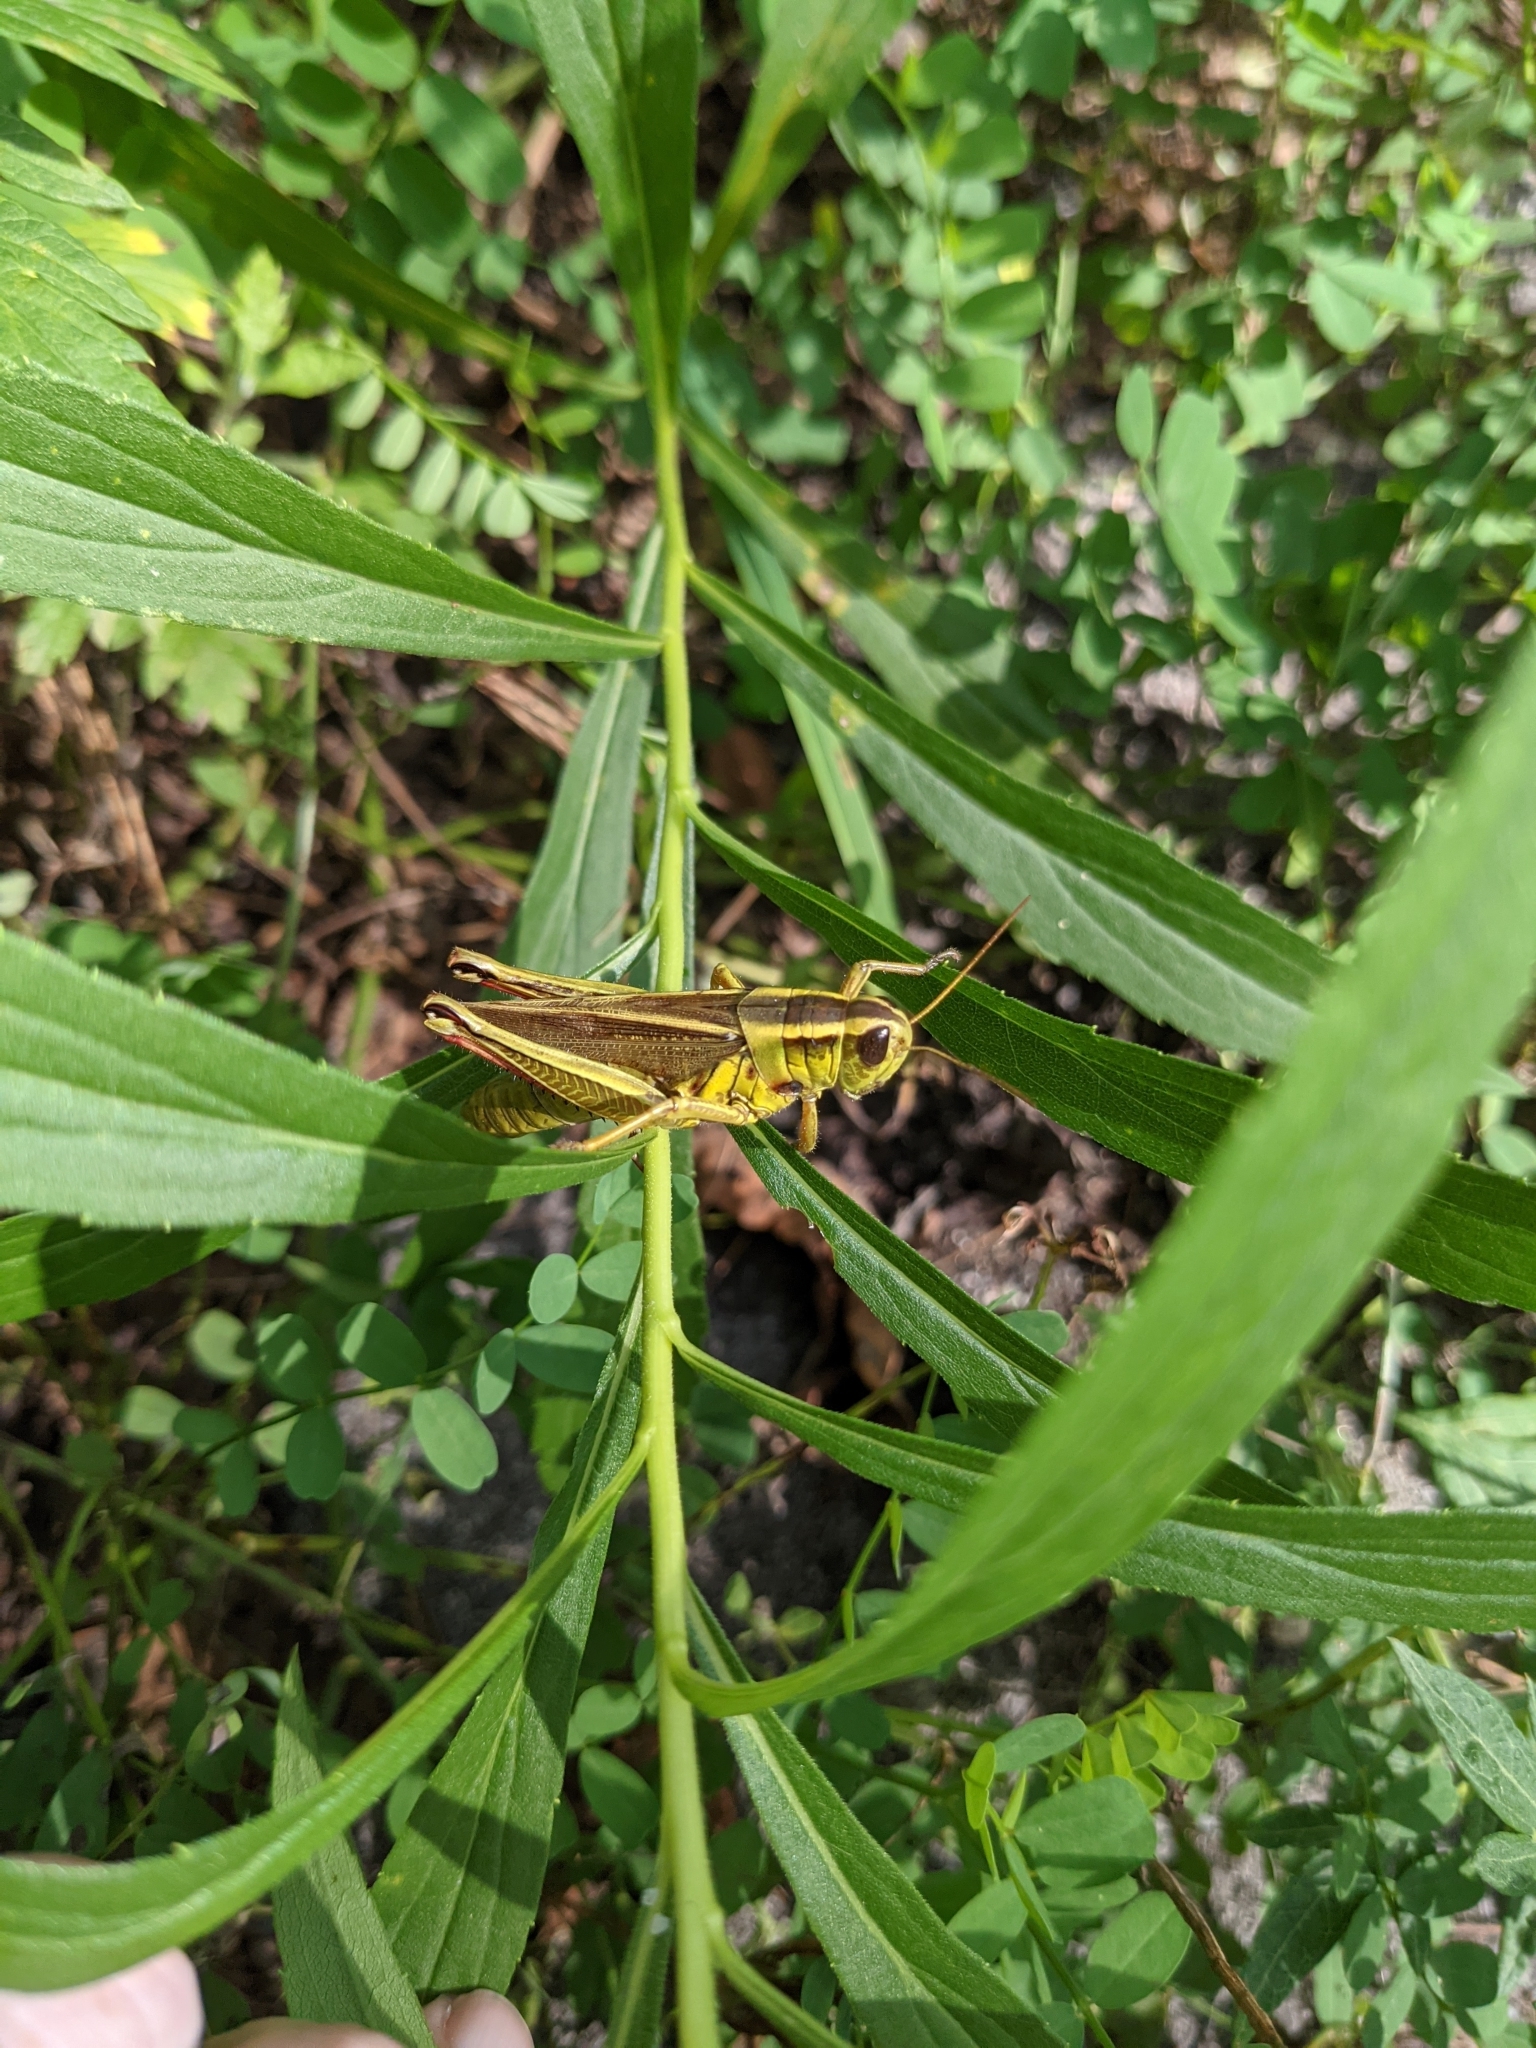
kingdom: Animalia
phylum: Arthropoda
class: Insecta
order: Orthoptera
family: Acrididae
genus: Melanoplus
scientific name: Melanoplus bivittatus
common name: Two-striped grasshopper
